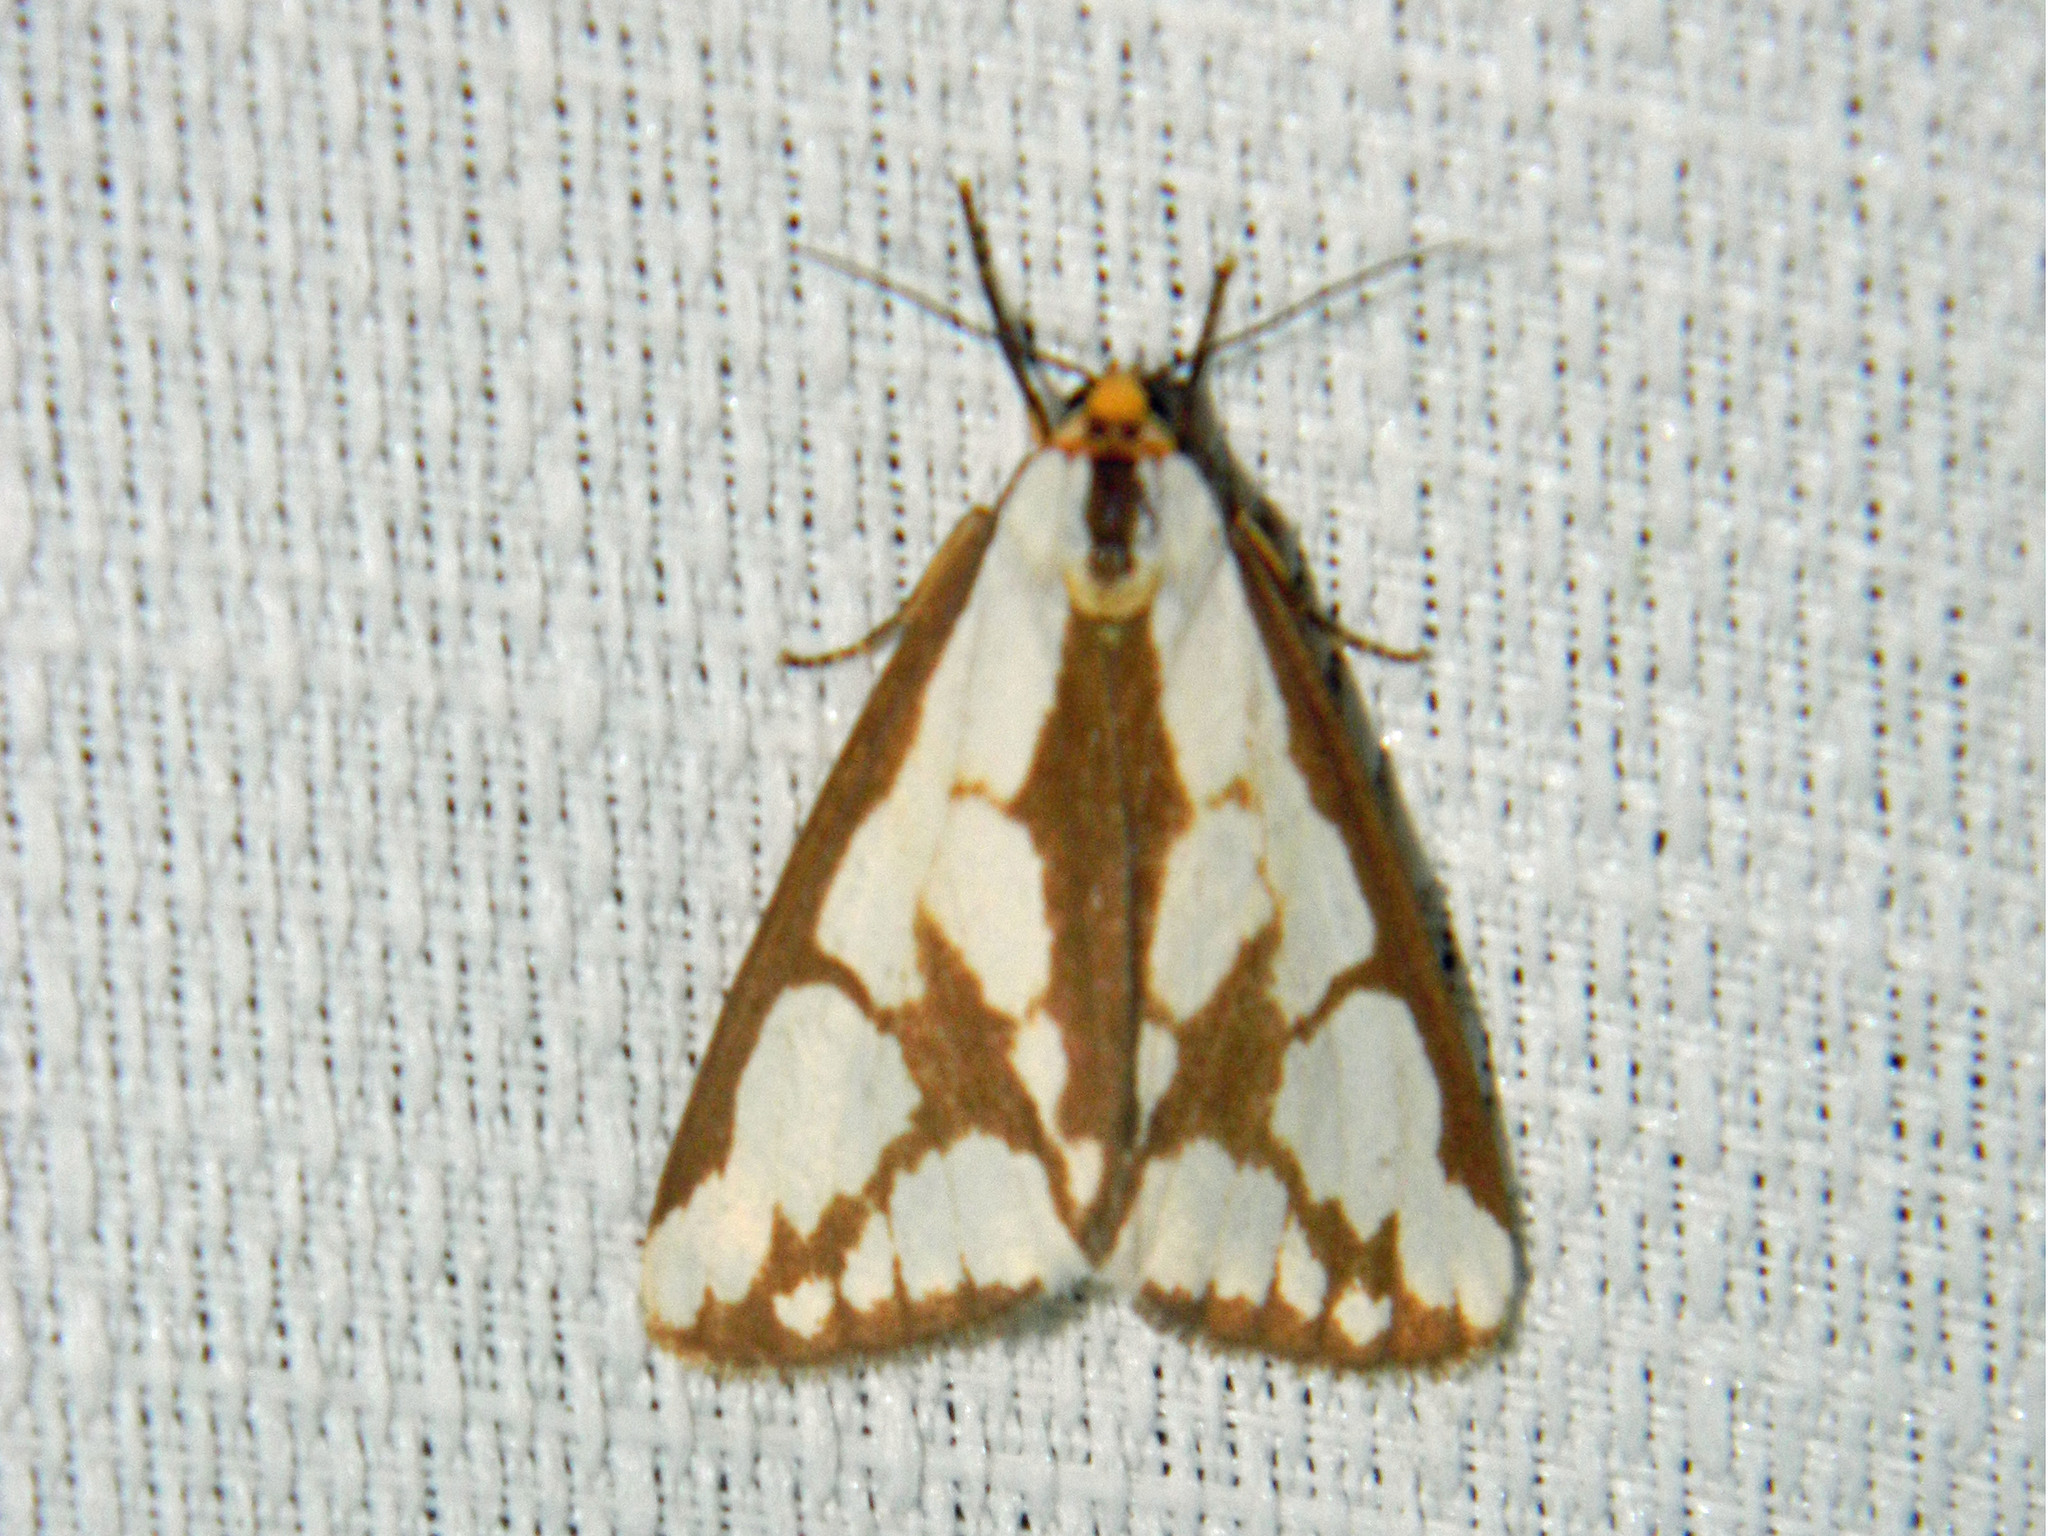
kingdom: Animalia
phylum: Arthropoda
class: Insecta
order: Lepidoptera
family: Erebidae
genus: Haploa
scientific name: Haploa confusa
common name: Confused haploa moth
